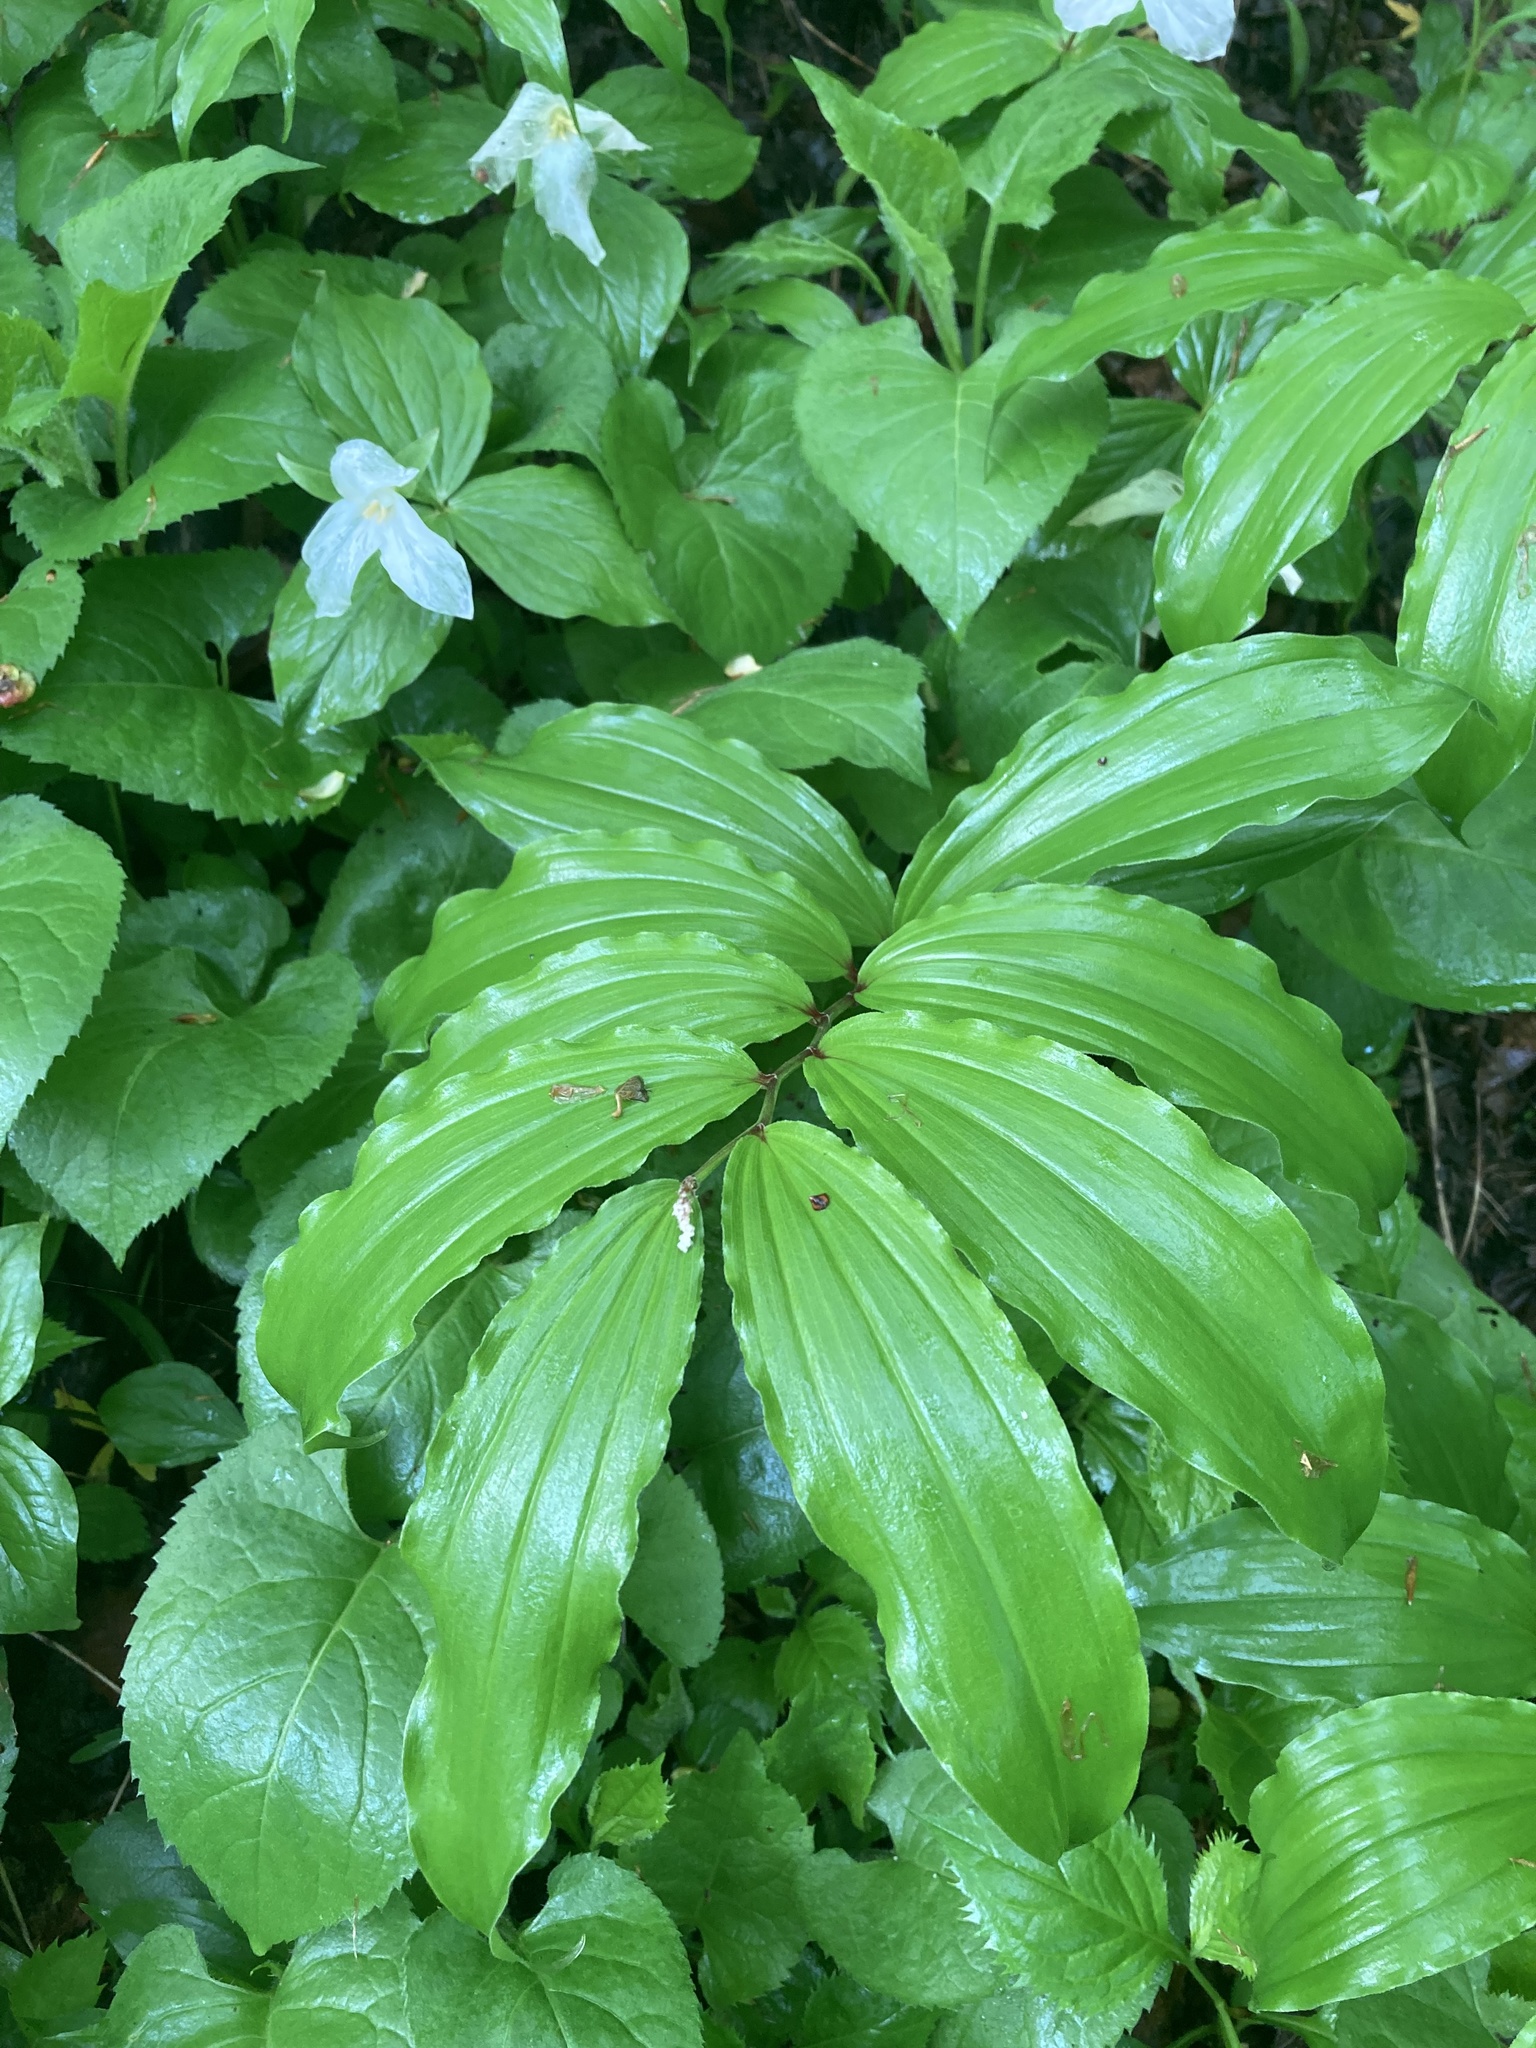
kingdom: Plantae
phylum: Tracheophyta
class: Liliopsida
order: Asparagales
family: Asparagaceae
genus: Maianthemum
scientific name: Maianthemum racemosum
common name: False spikenard
